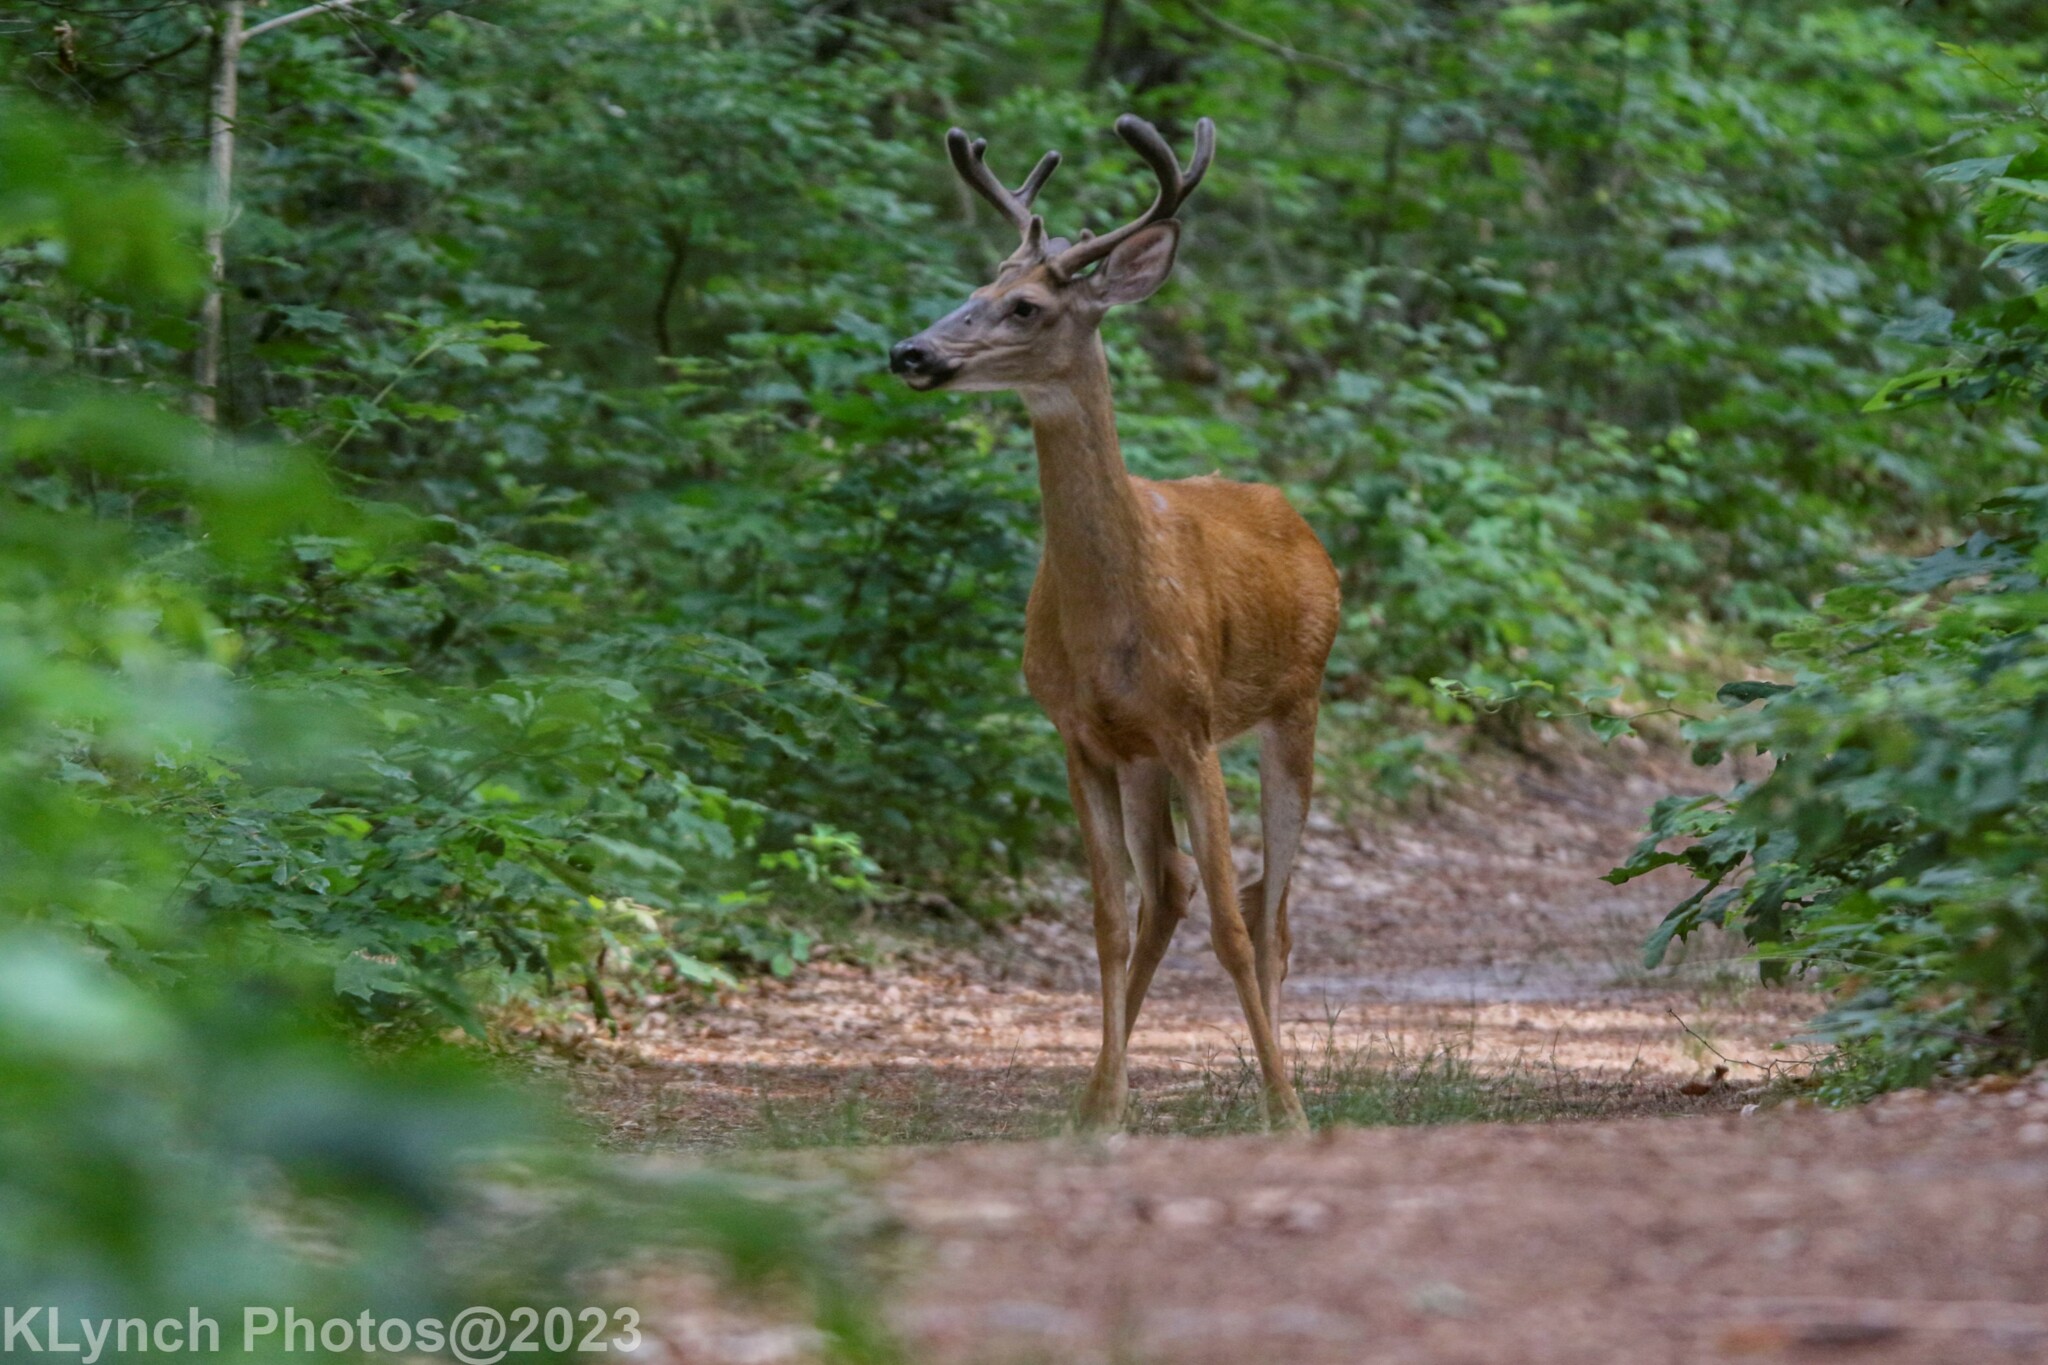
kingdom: Animalia
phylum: Chordata
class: Mammalia
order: Artiodactyla
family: Cervidae
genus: Odocoileus
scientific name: Odocoileus virginianus
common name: White-tailed deer
